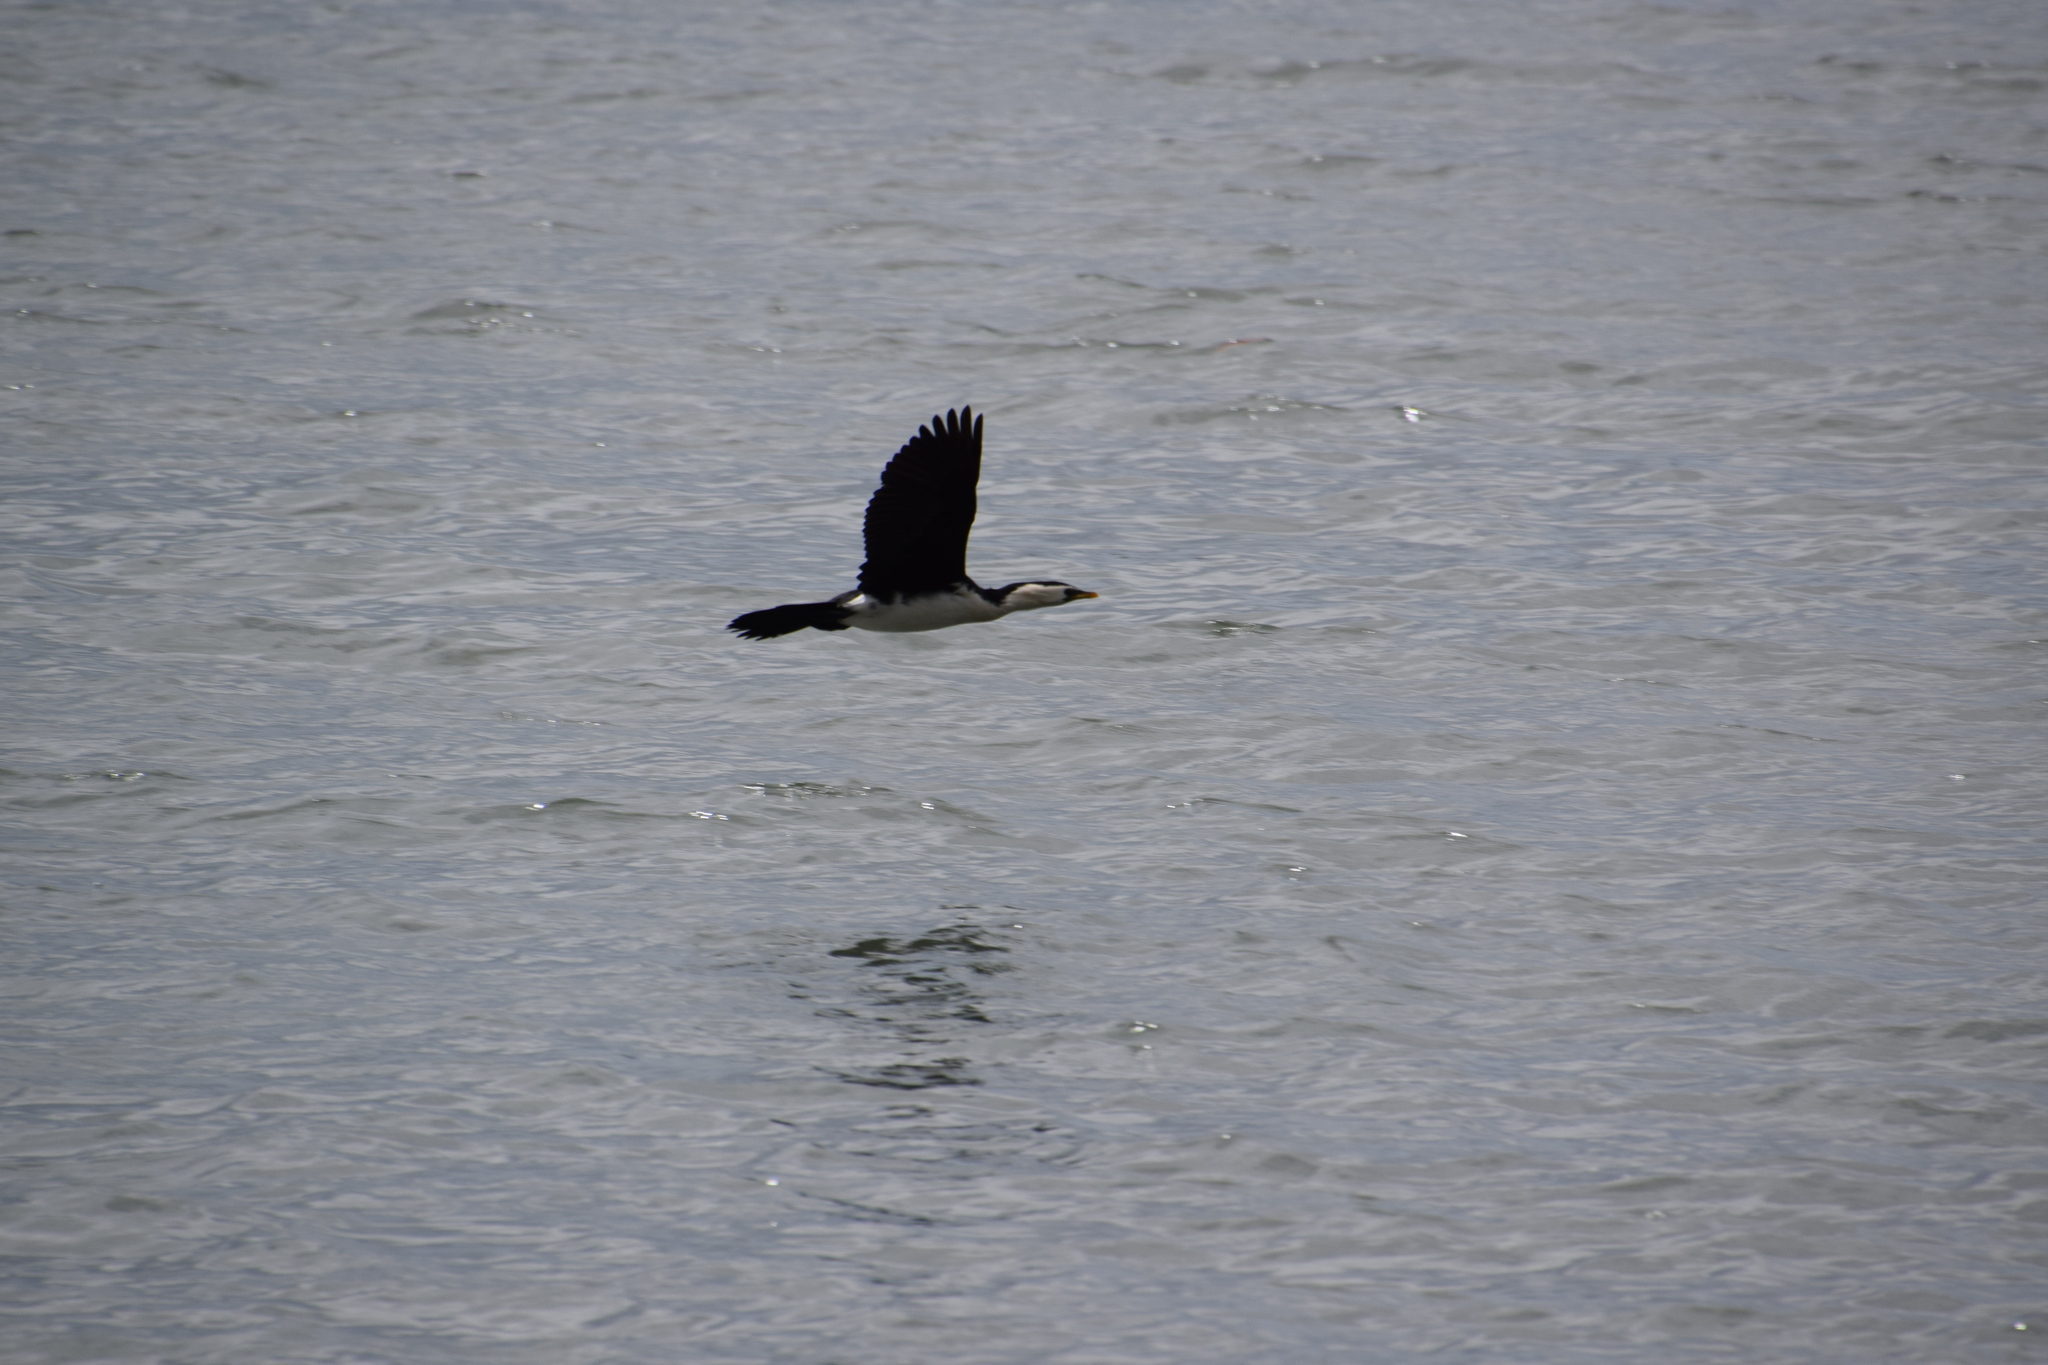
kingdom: Animalia
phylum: Chordata
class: Aves
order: Suliformes
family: Phalacrocoracidae
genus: Microcarbo
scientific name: Microcarbo melanoleucos
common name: Little pied cormorant
